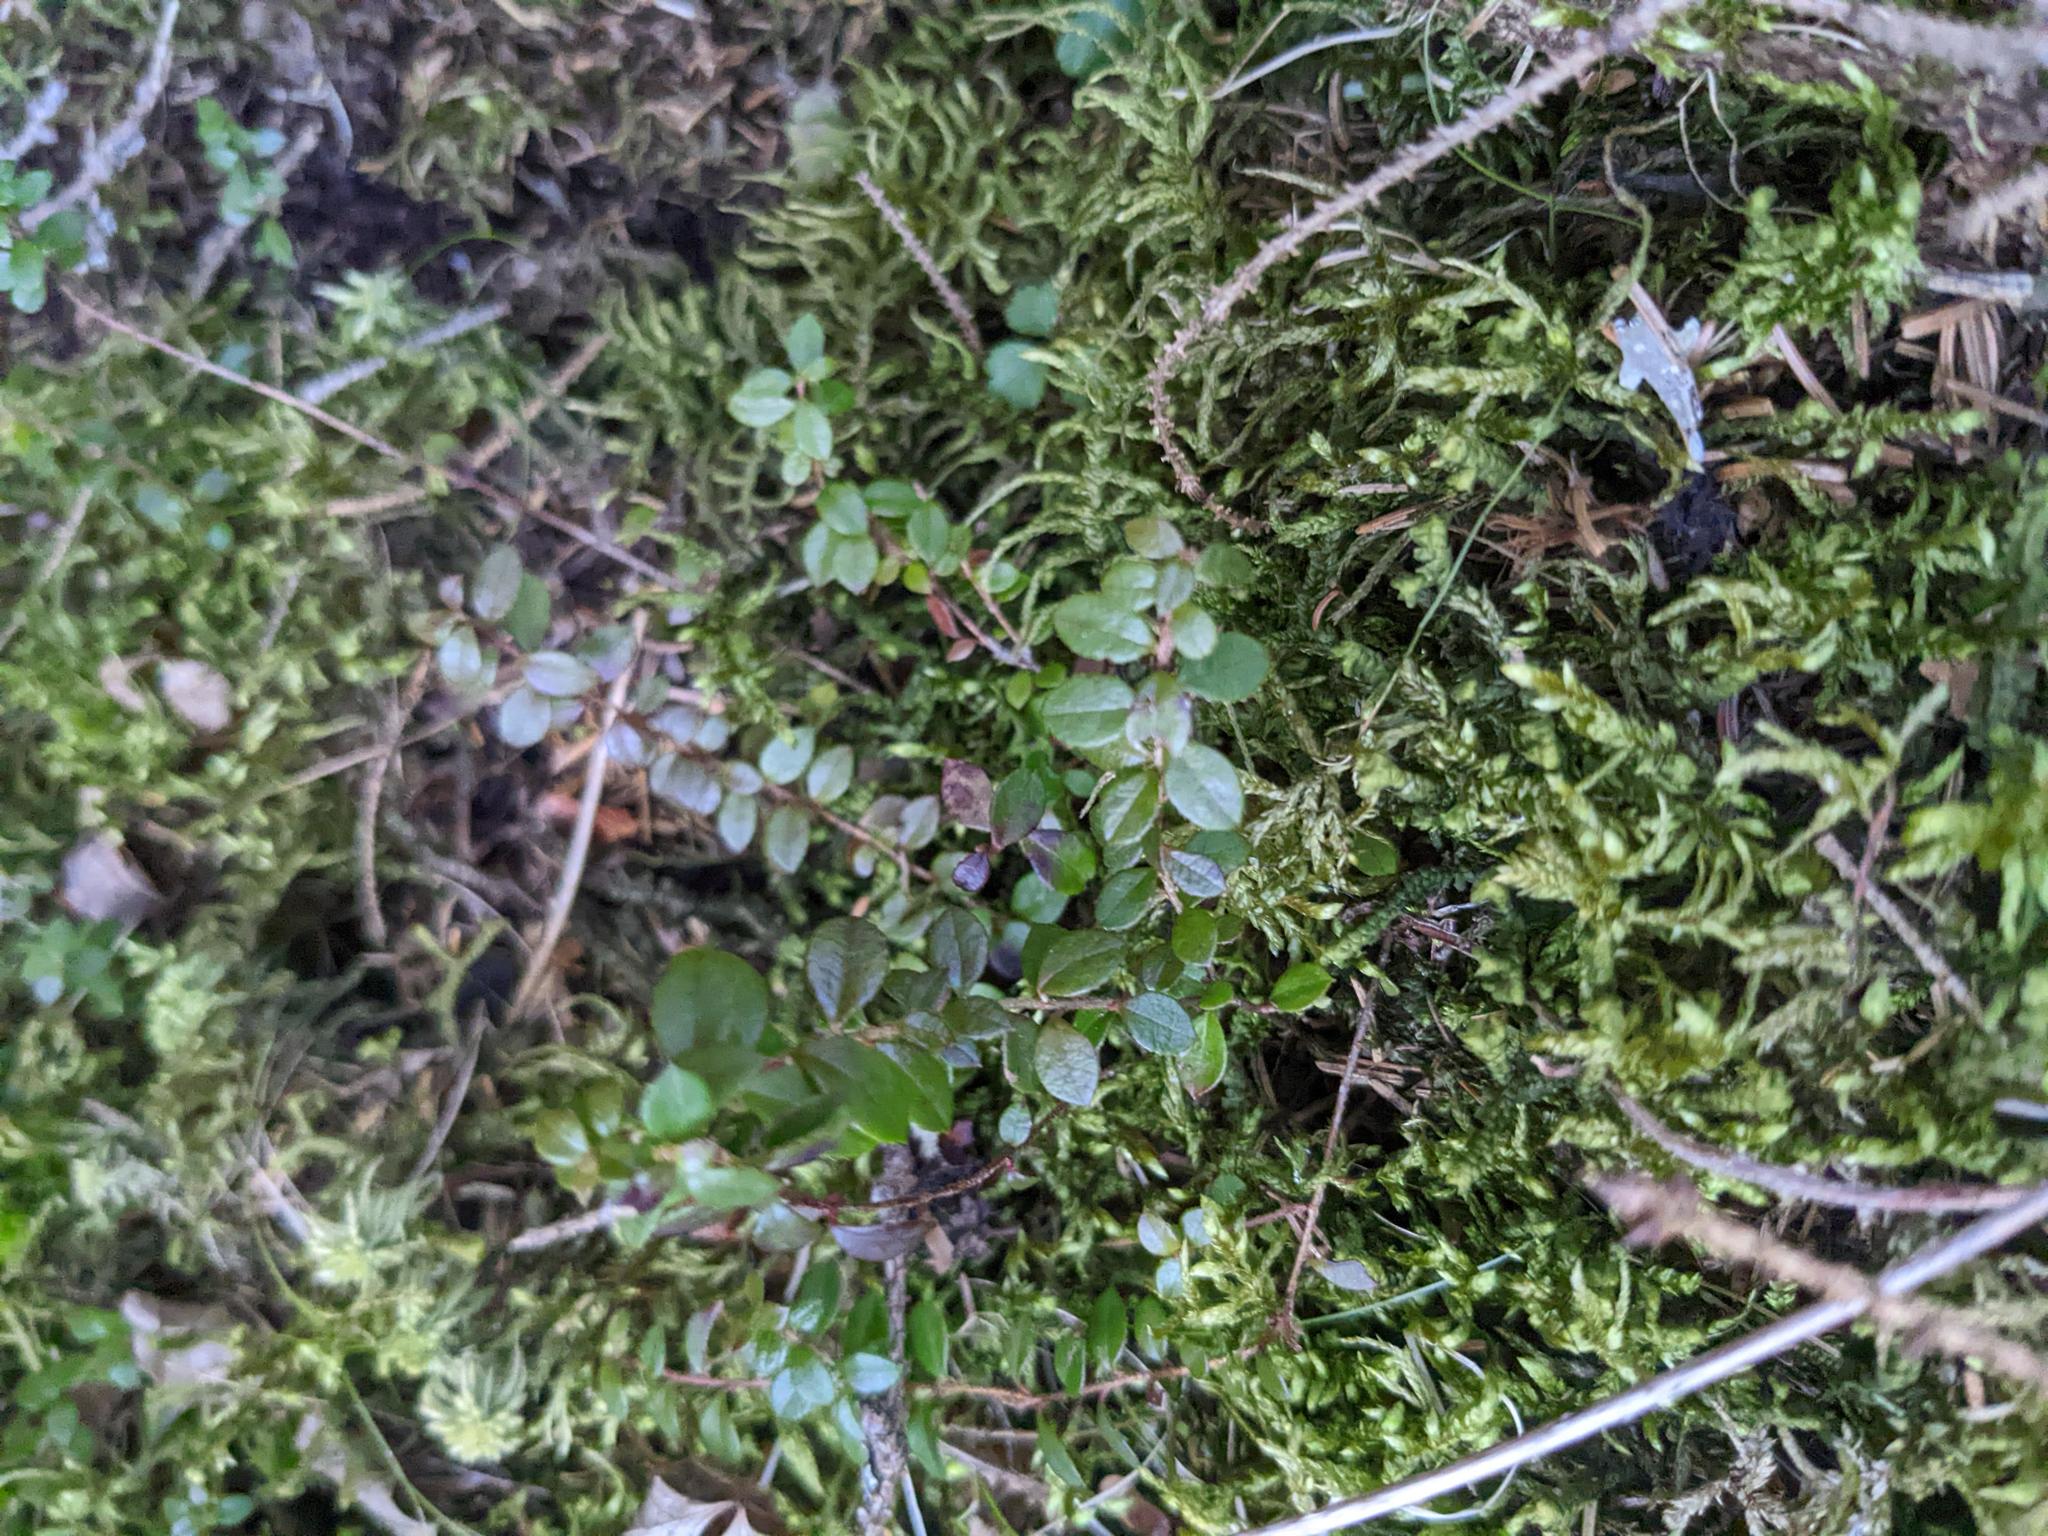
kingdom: Plantae
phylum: Tracheophyta
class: Magnoliopsida
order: Ericales
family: Ericaceae
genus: Gaultheria
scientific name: Gaultheria hispidula
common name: Cancer wintergreen
